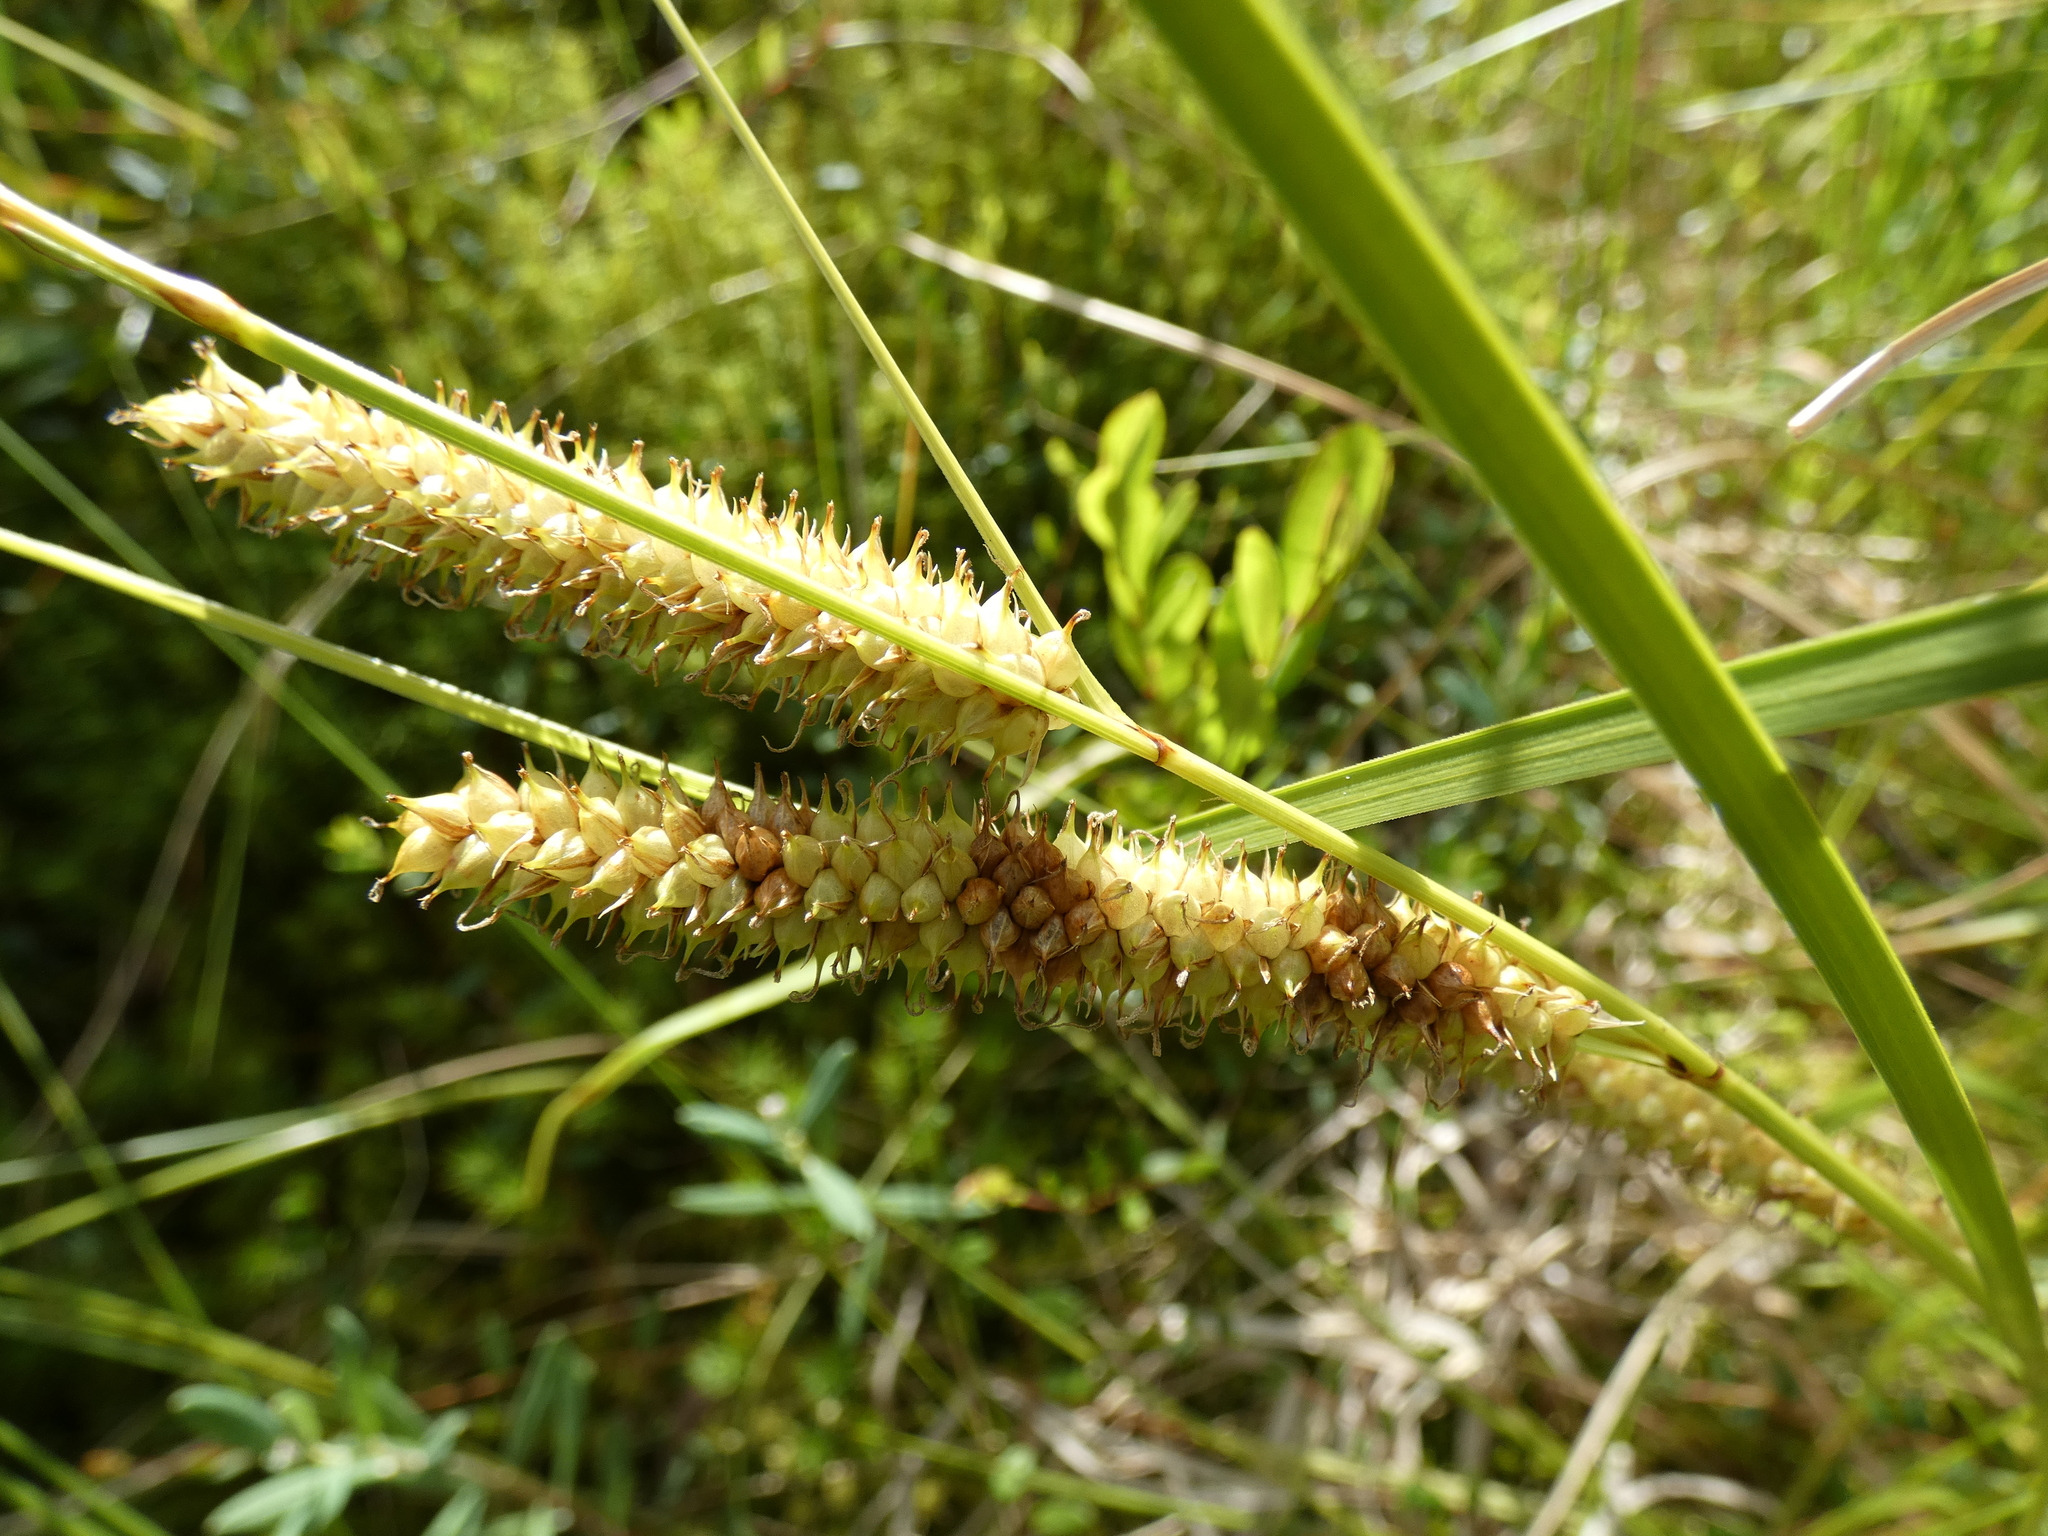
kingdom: Plantae
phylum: Tracheophyta
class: Liliopsida
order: Poales
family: Cyperaceae
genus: Carex
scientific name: Carex rostrata
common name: Bottle sedge
